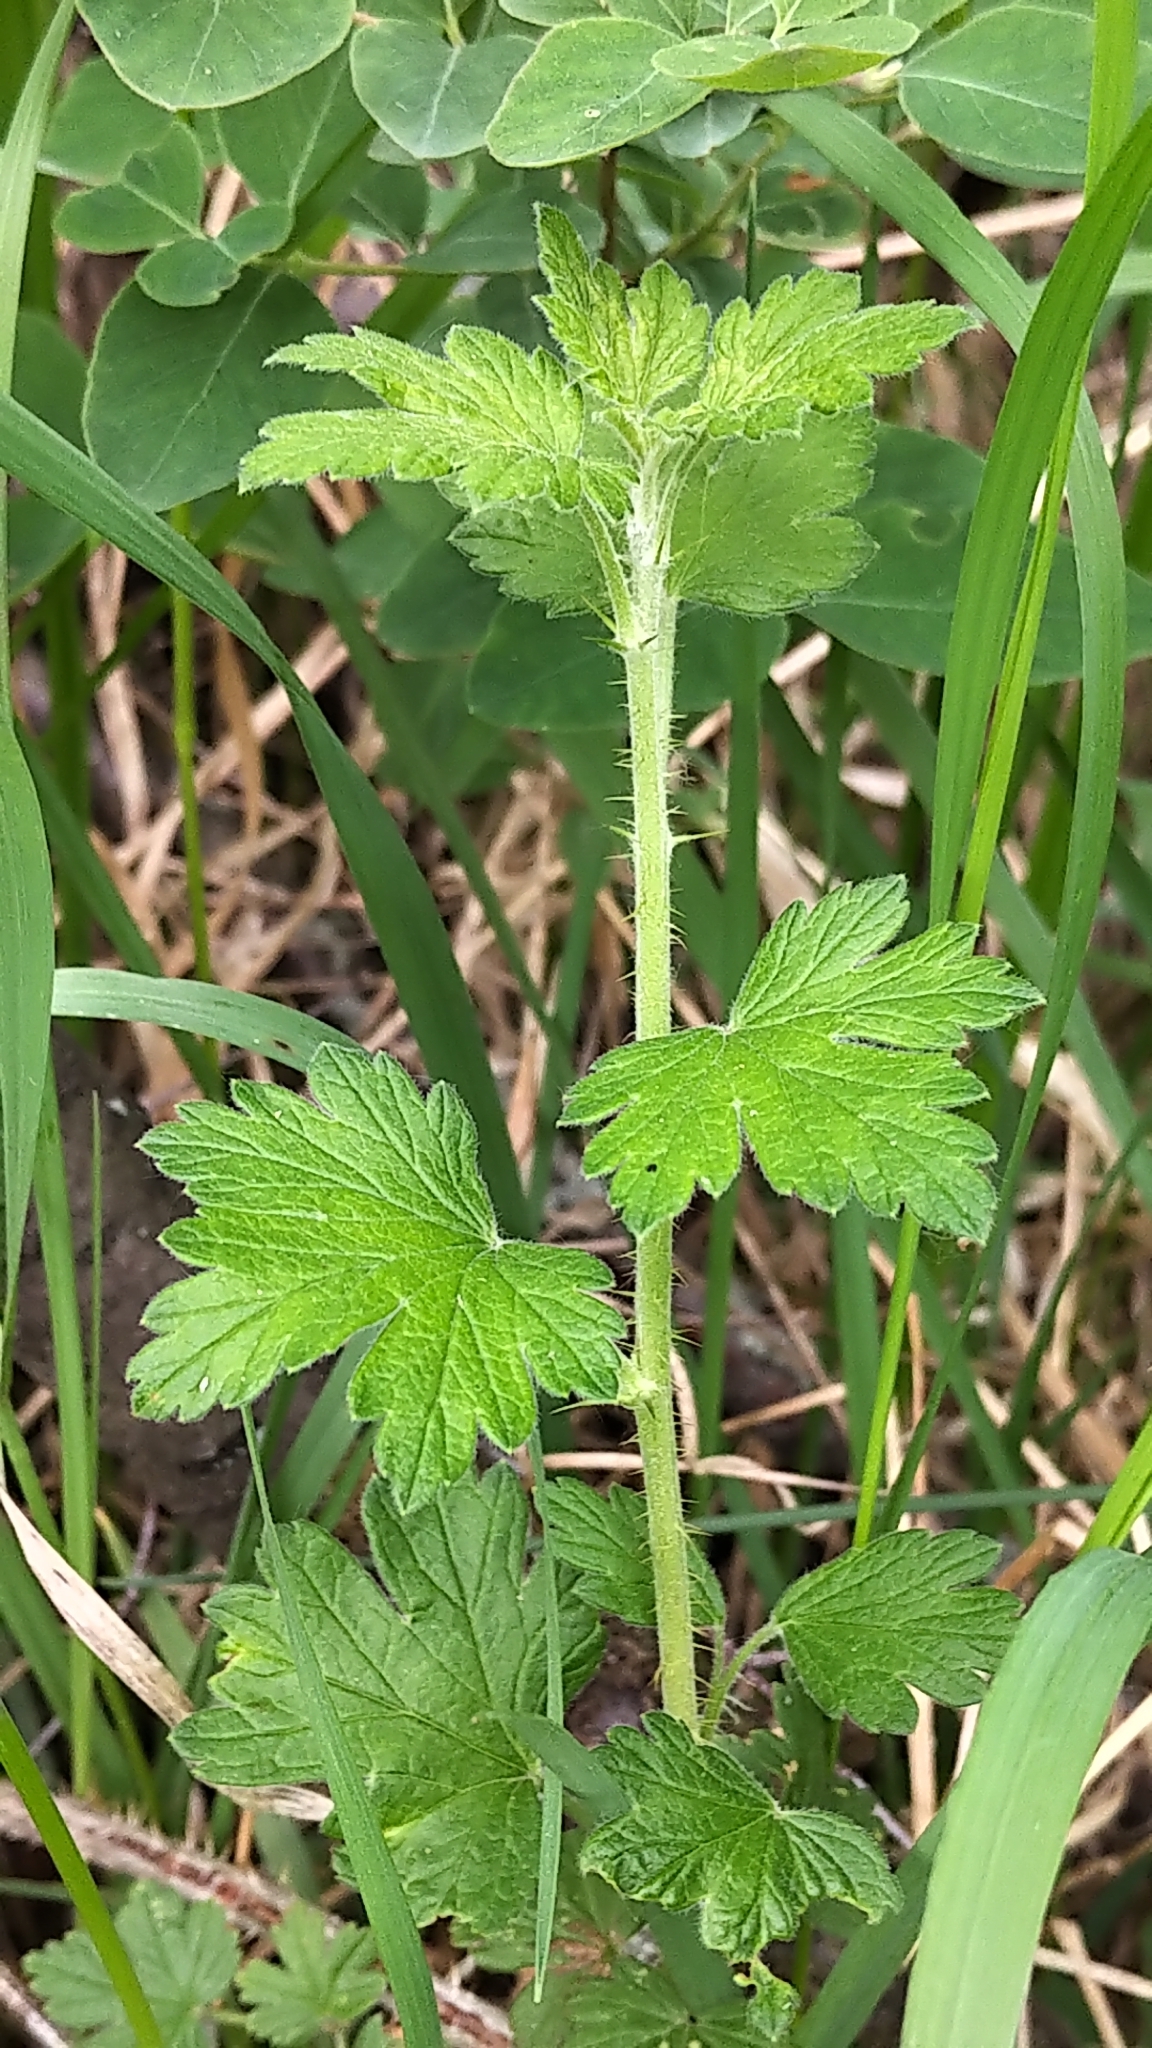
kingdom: Plantae
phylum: Tracheophyta
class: Magnoliopsida
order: Saxifragales
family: Grossulariaceae
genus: Ribes
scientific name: Ribes oxyacanthoides
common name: Northern gooseberry
